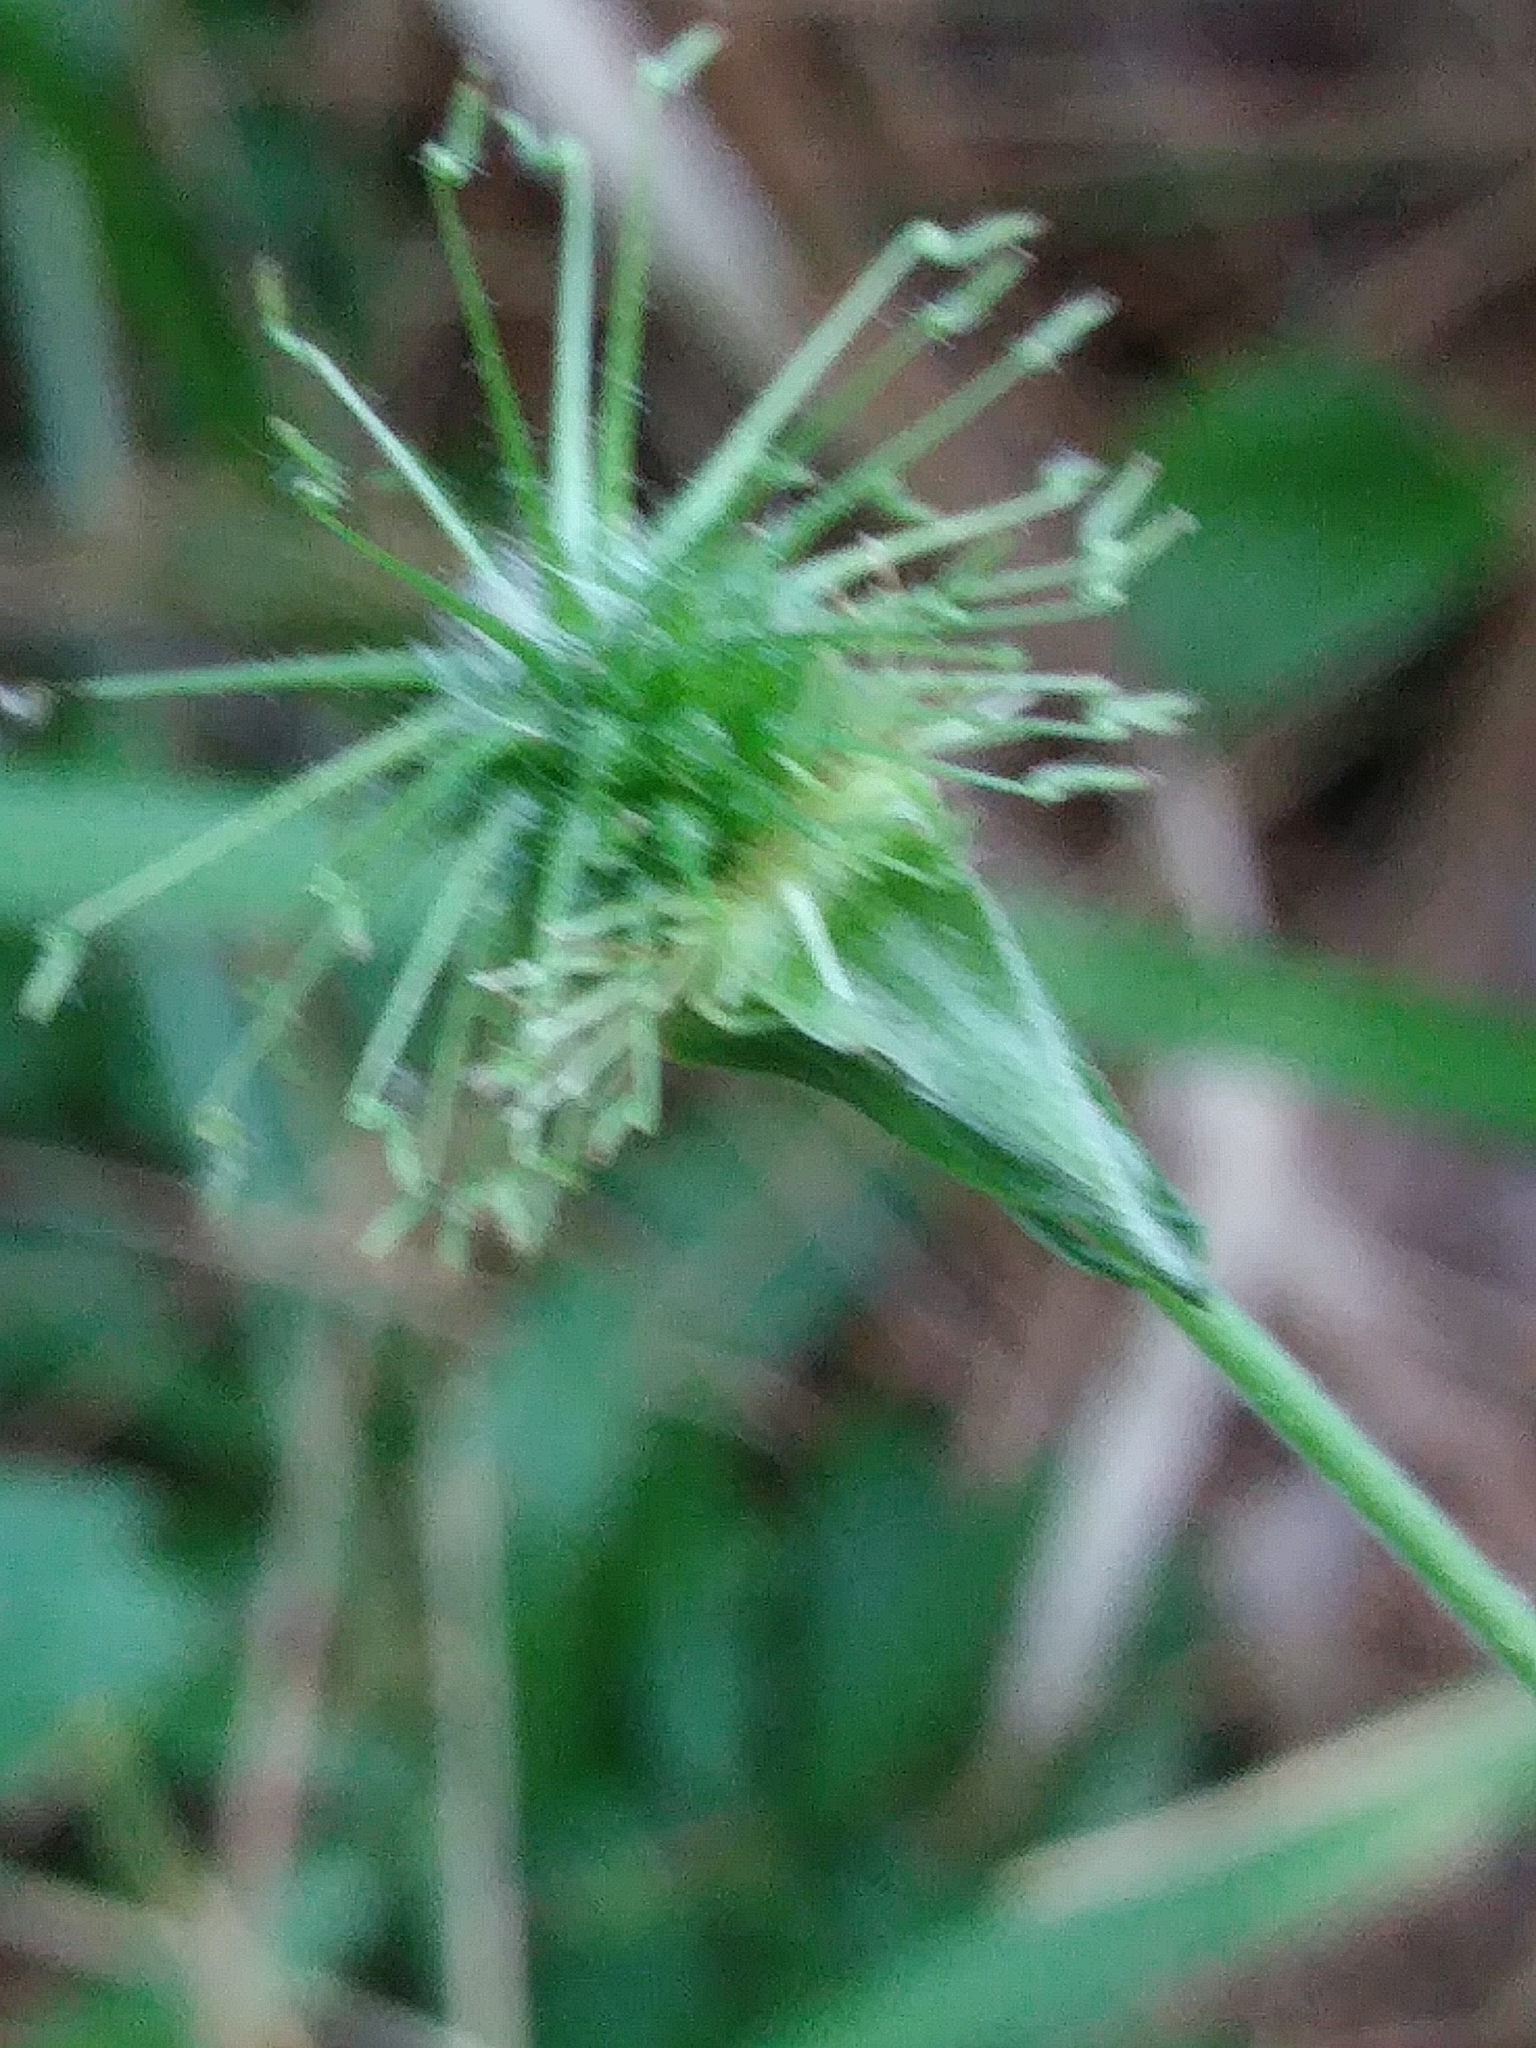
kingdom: Plantae
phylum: Tracheophyta
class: Magnoliopsida
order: Rosales
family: Rosaceae
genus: Geum
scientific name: Geum canadense
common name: White avens
